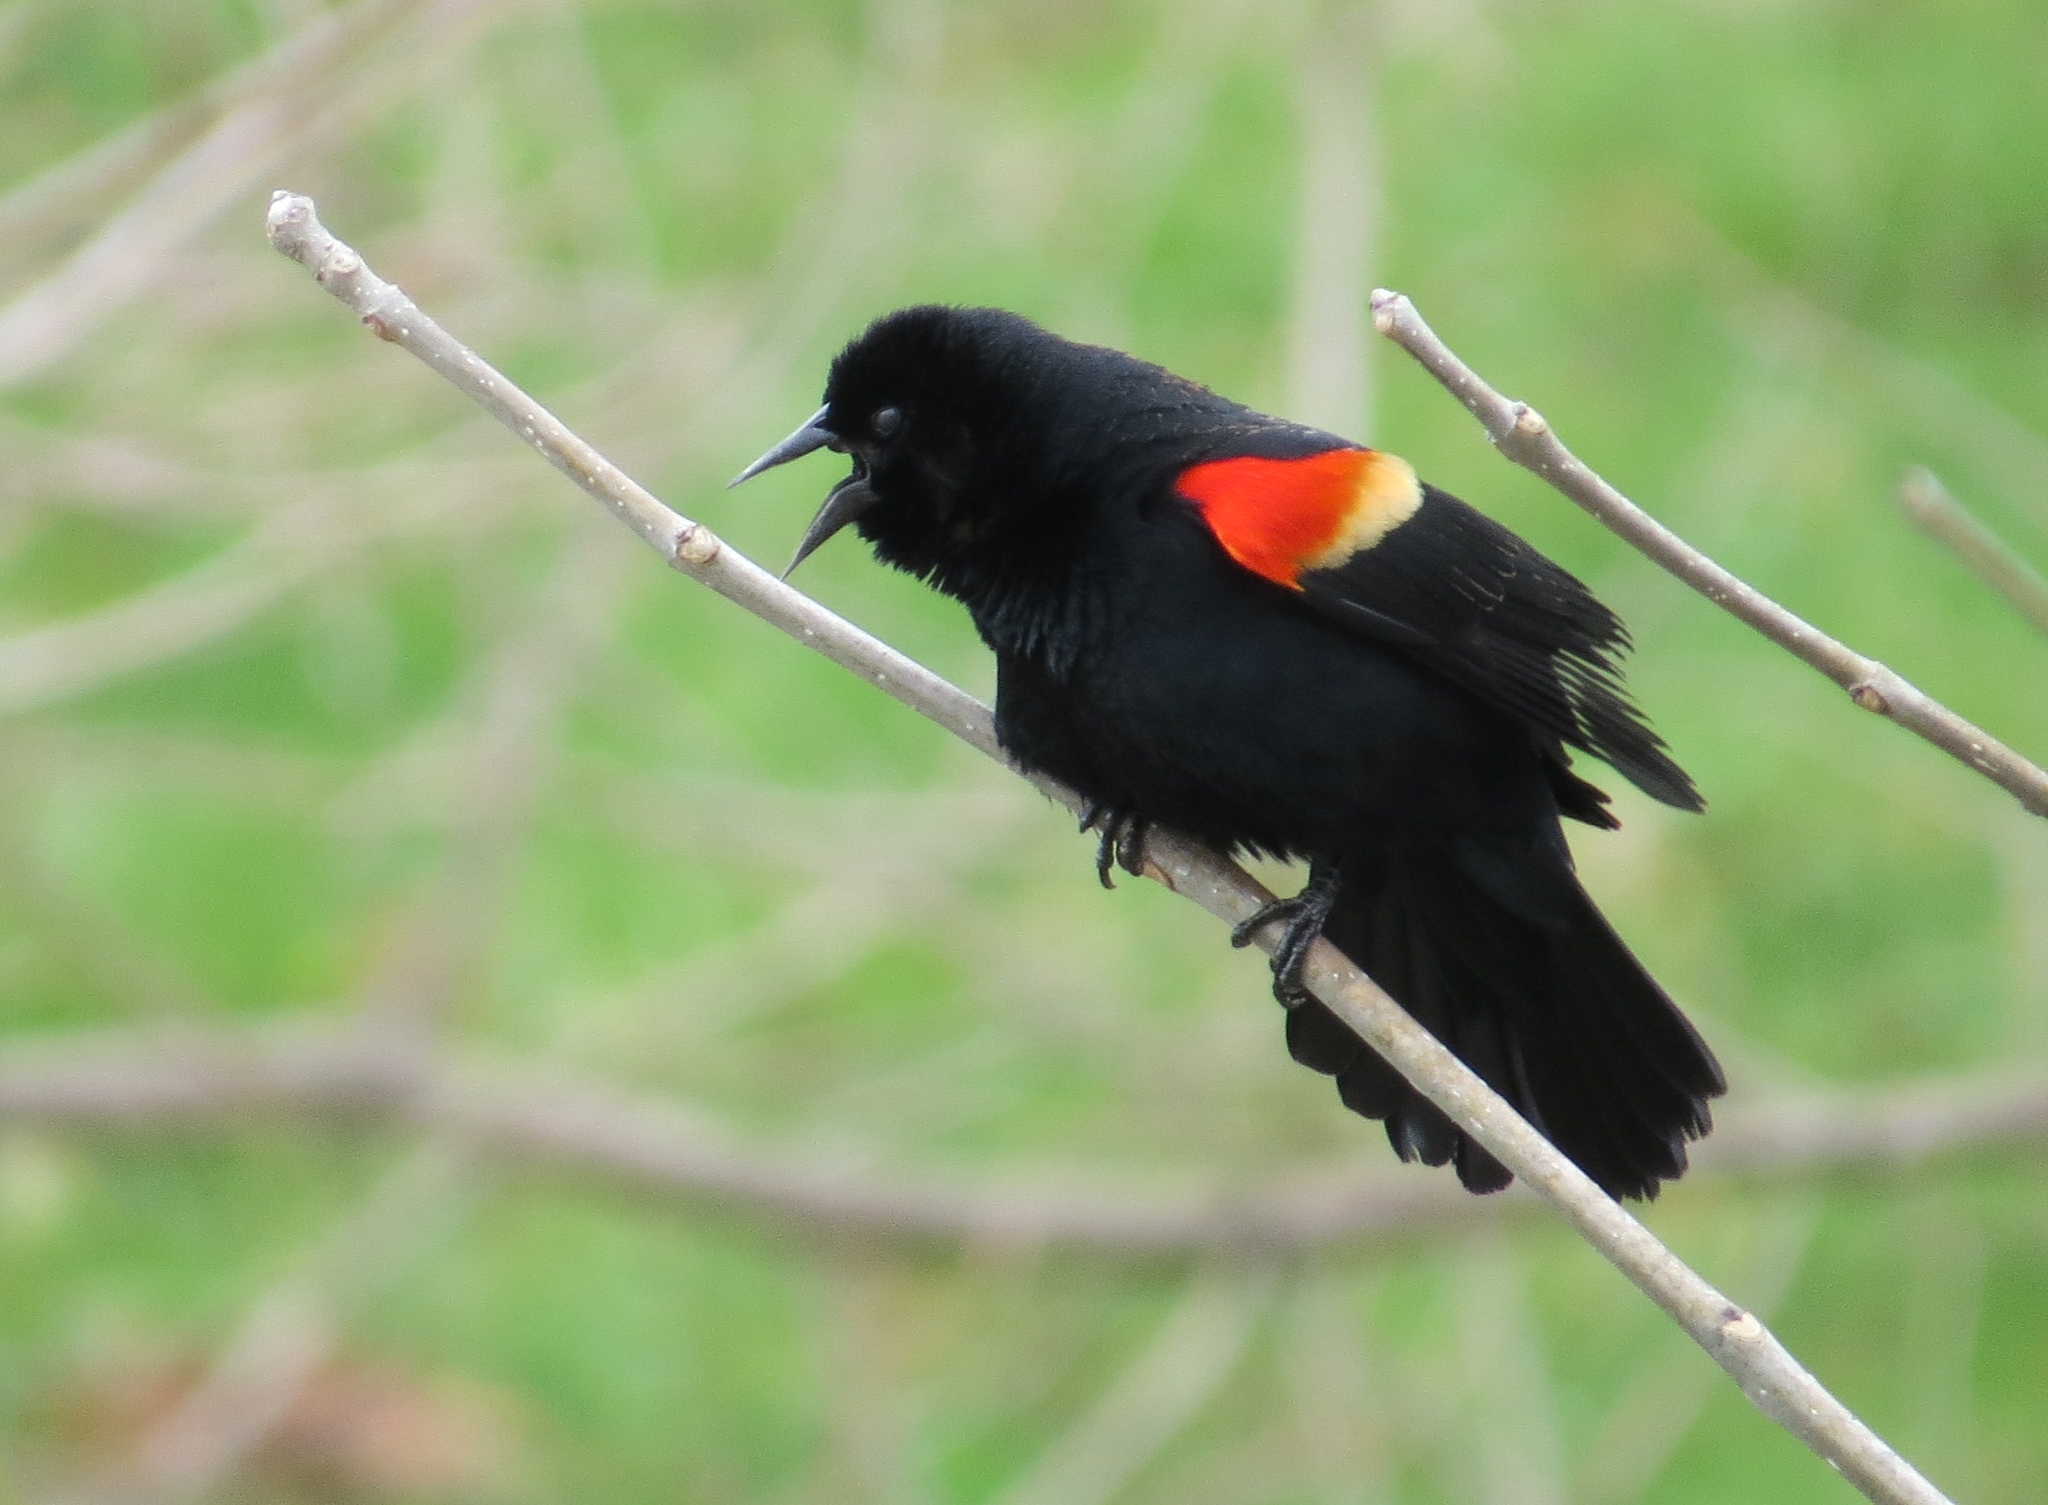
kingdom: Animalia
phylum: Chordata
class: Aves
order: Passeriformes
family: Icteridae
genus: Agelaius
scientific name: Agelaius phoeniceus
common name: Red-winged blackbird
